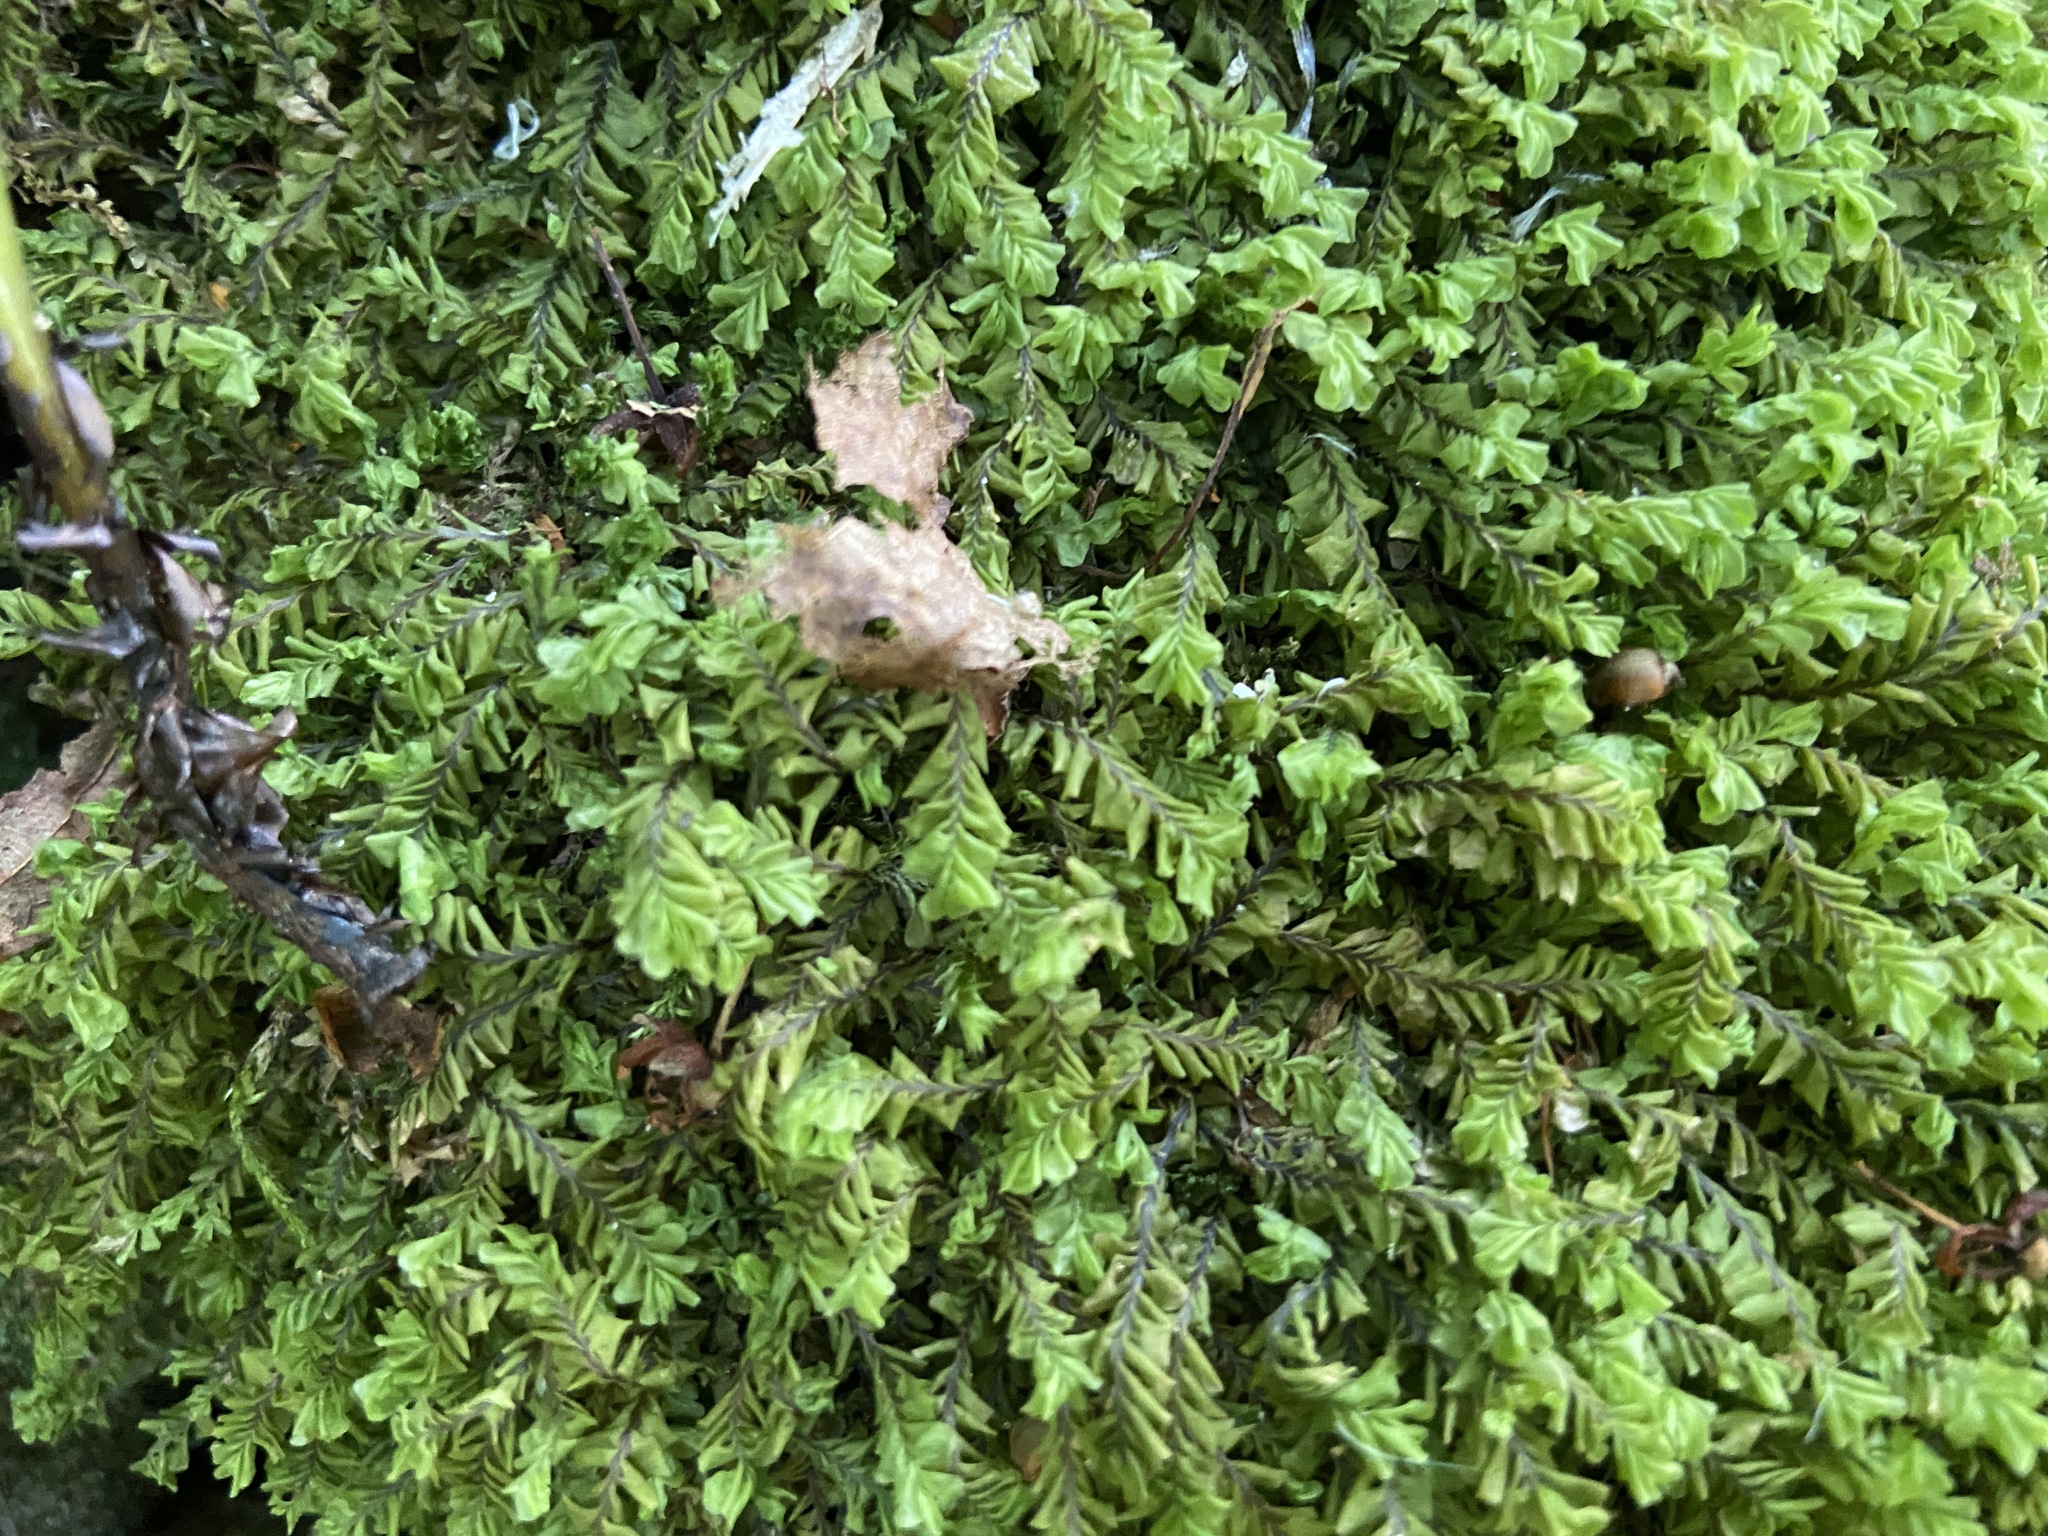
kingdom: Plantae
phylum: Marchantiophyta
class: Jungermanniopsida
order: Jungermanniales
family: Plagiochilaceae
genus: Plagiochila
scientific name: Plagiochila asplenioides
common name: Greater featherwort
